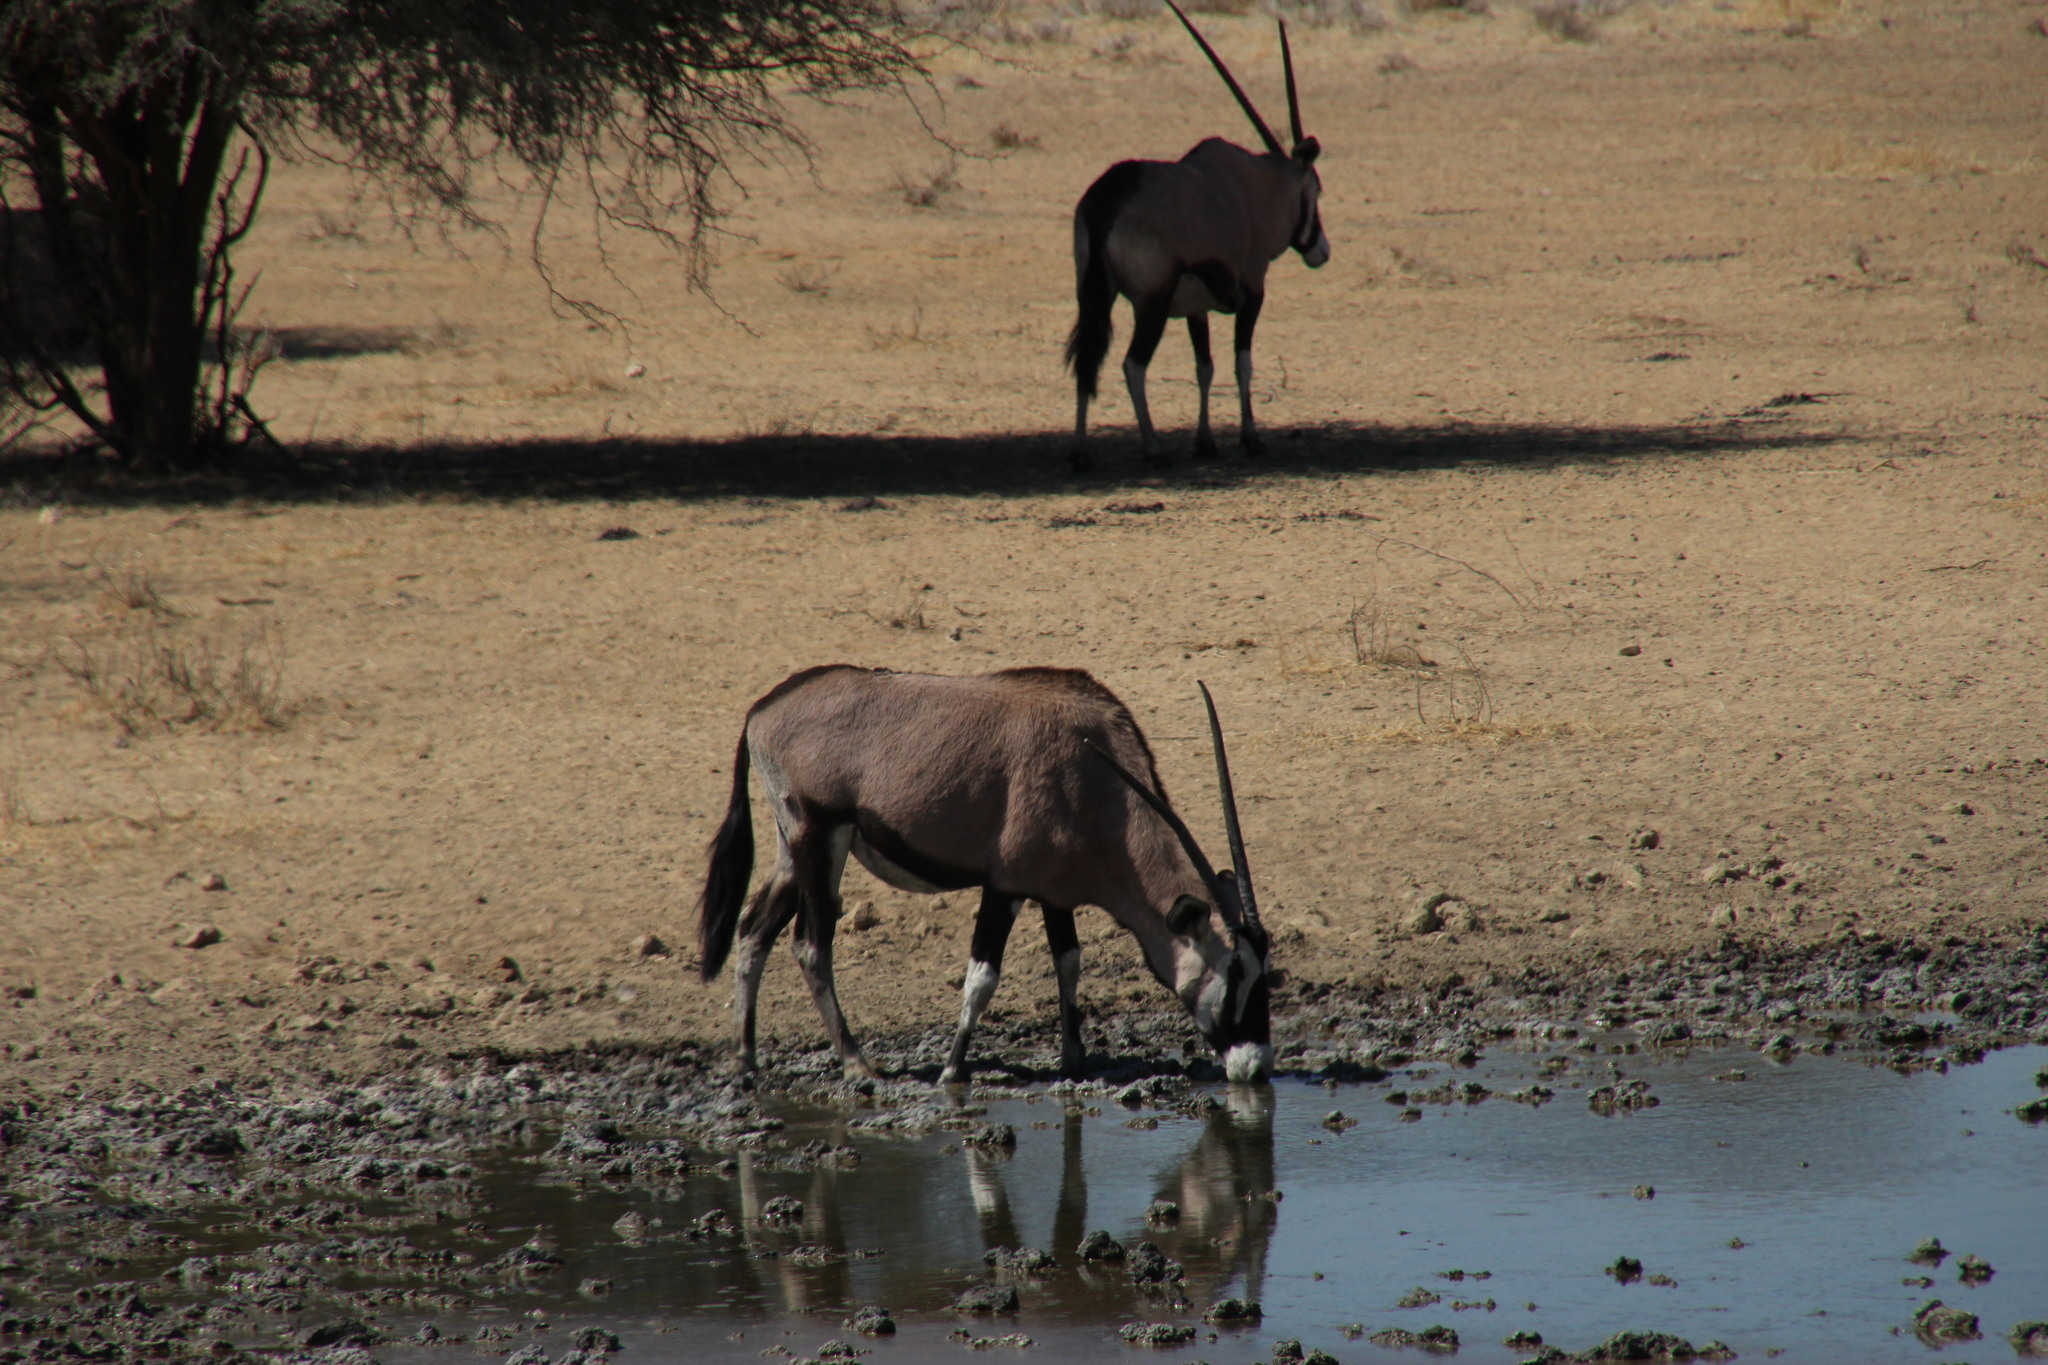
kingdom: Animalia
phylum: Chordata
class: Mammalia
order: Artiodactyla
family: Bovidae
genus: Oryx
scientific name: Oryx gazella
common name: Gemsbok
